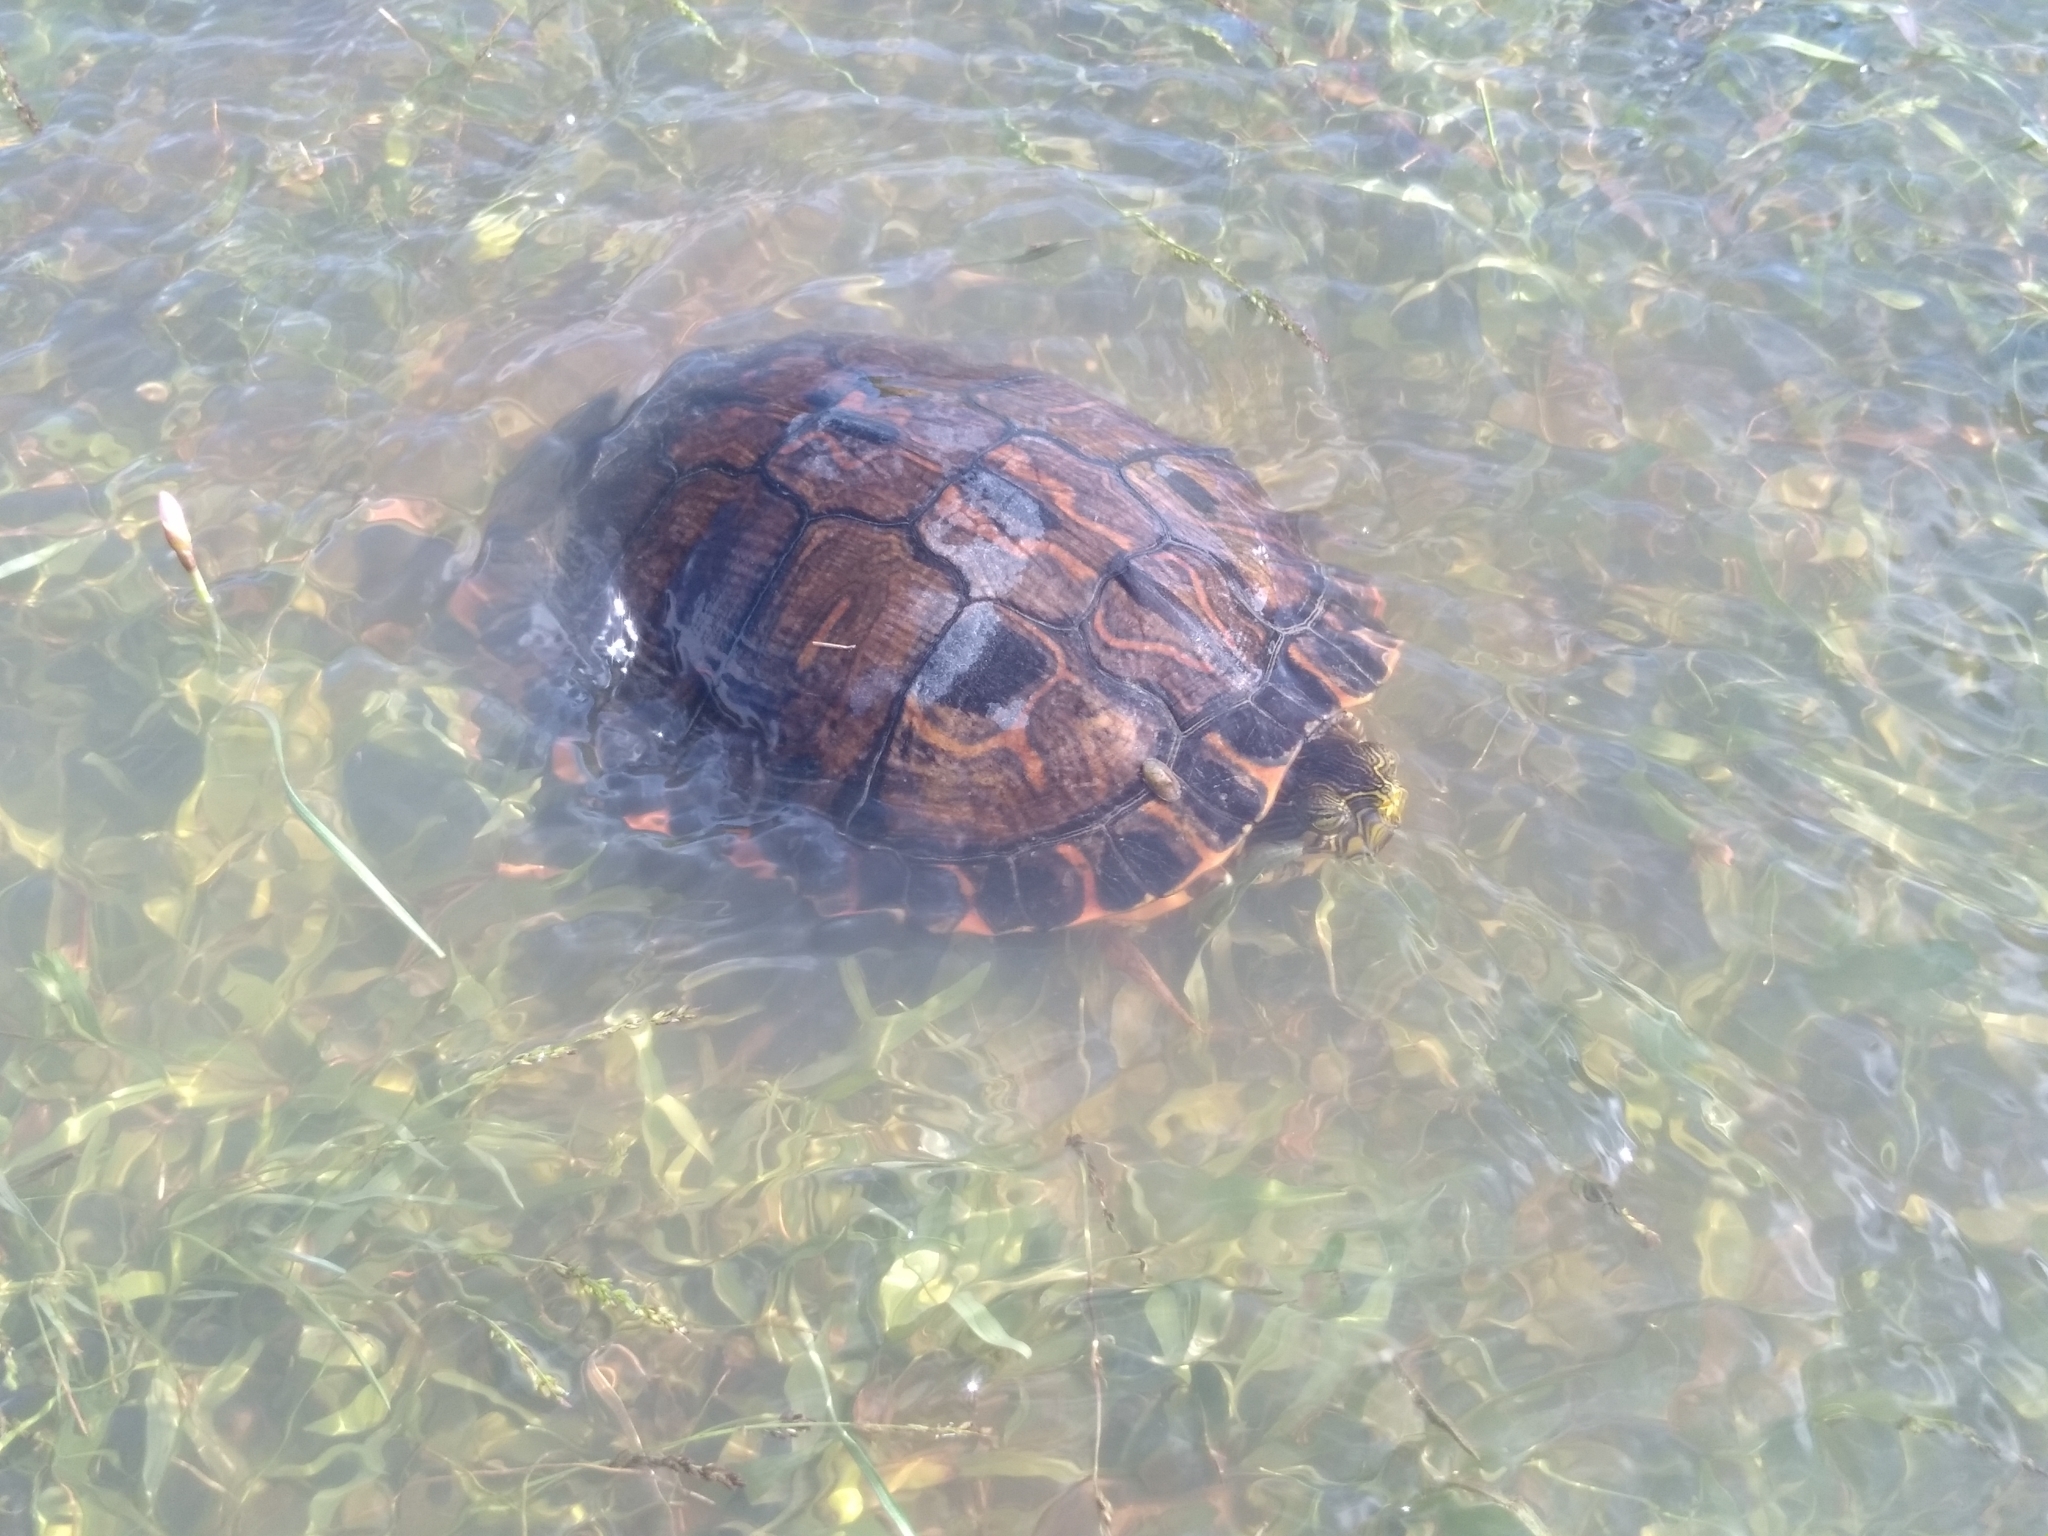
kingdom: Animalia
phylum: Chordata
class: Testudines
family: Emydidae
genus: Trachemys
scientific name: Trachemys dorbigni
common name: Black-bellied slider
